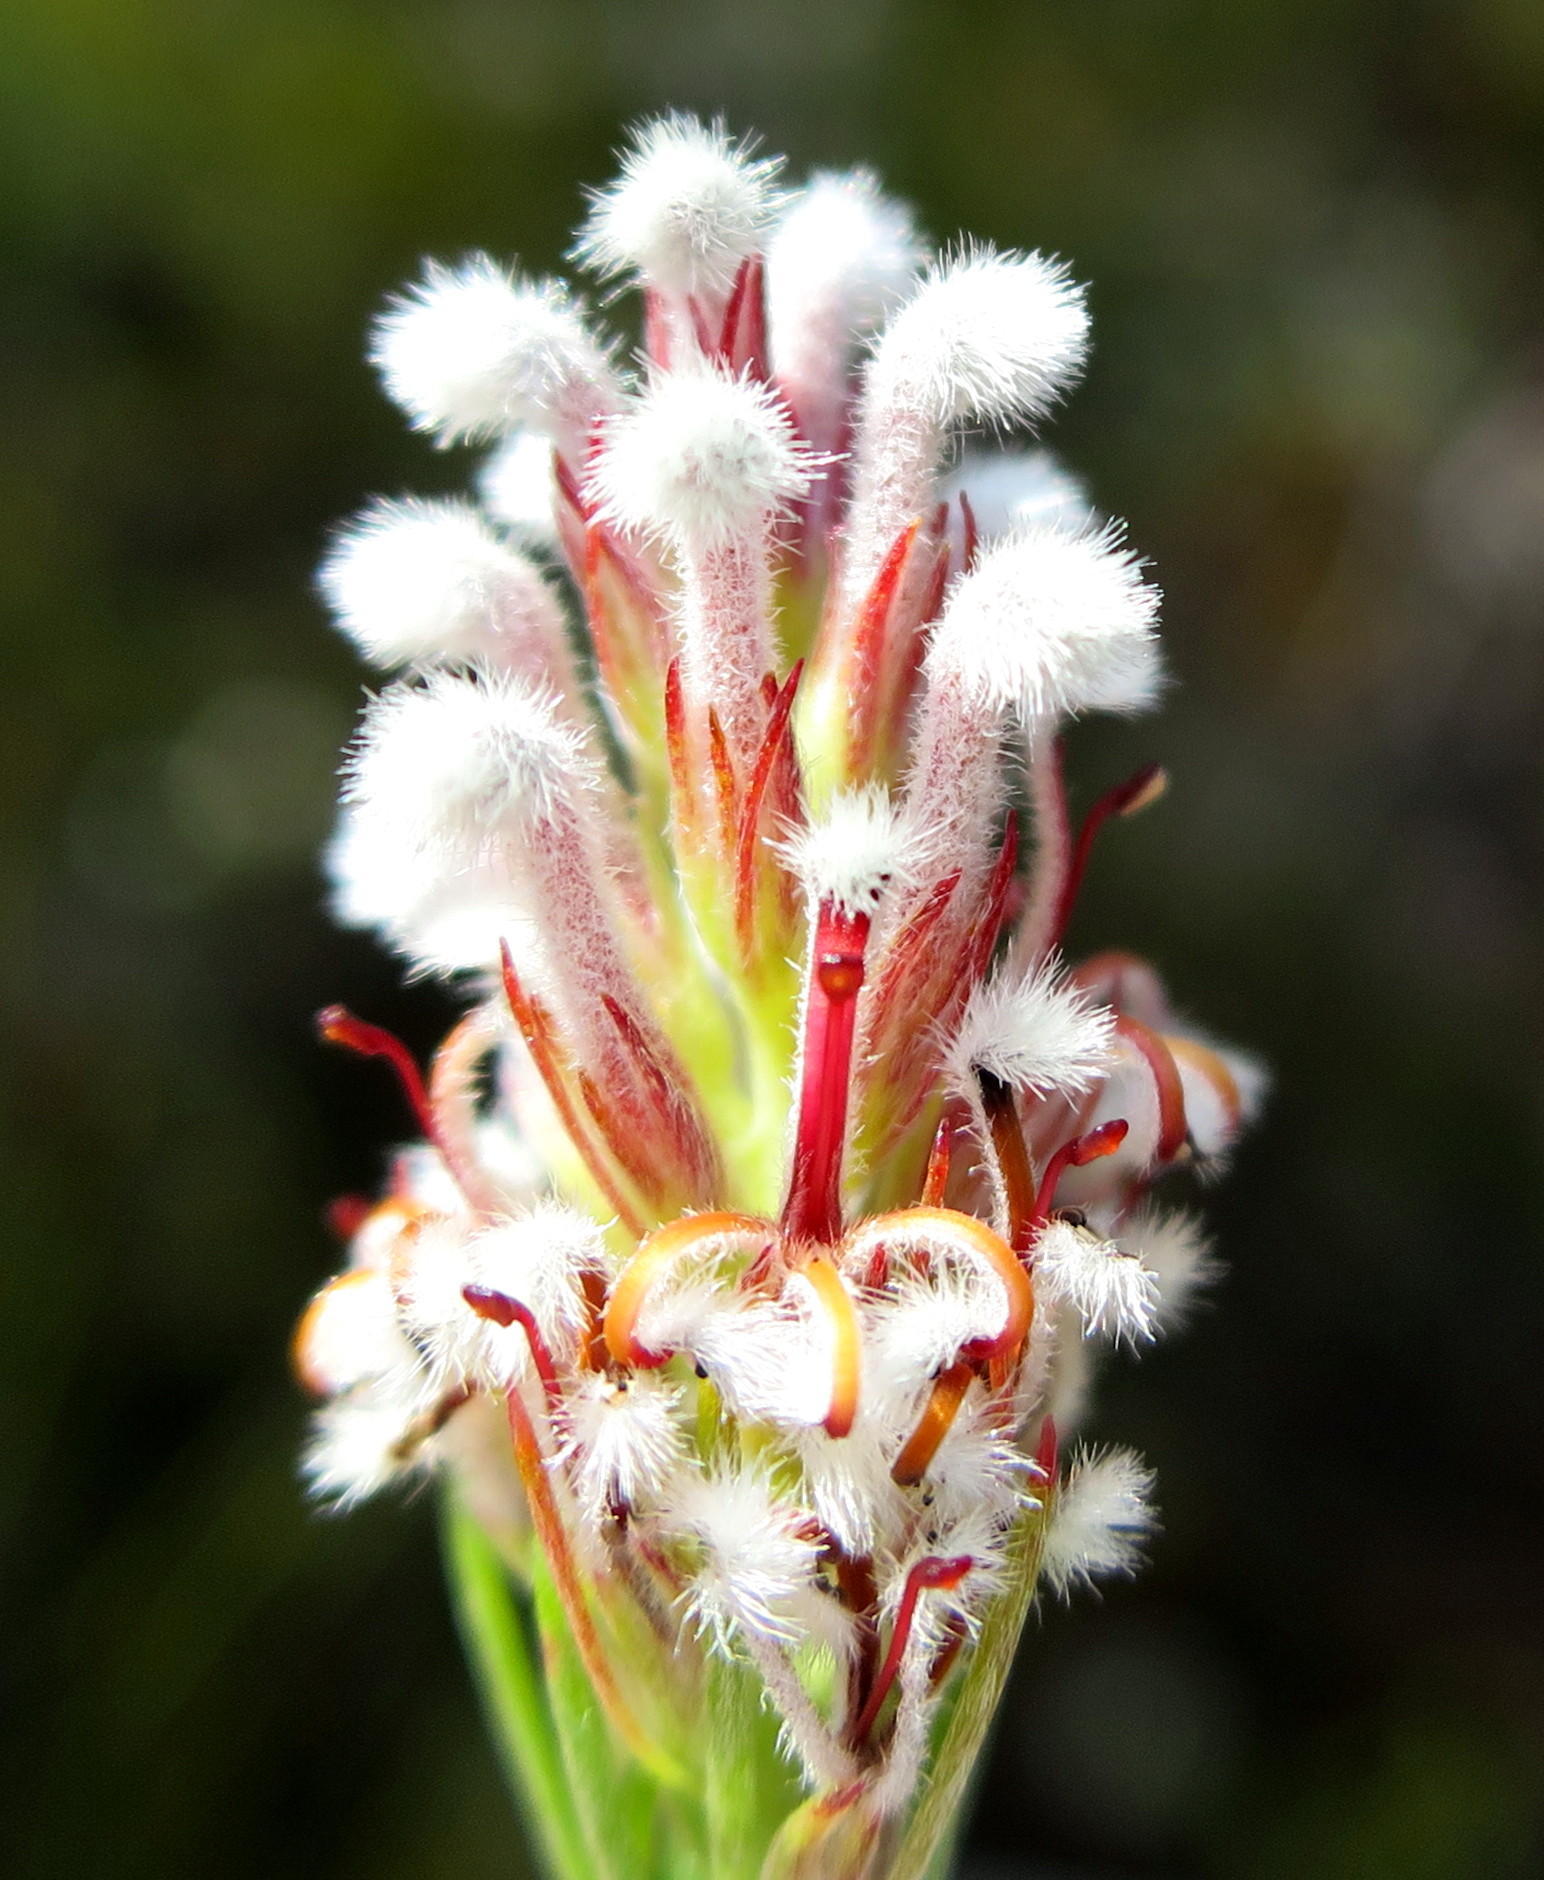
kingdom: Plantae
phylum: Tracheophyta
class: Magnoliopsida
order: Proteales
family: Proteaceae
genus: Spatalla
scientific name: Spatalla barbigera
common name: Fine-leaf spoon
